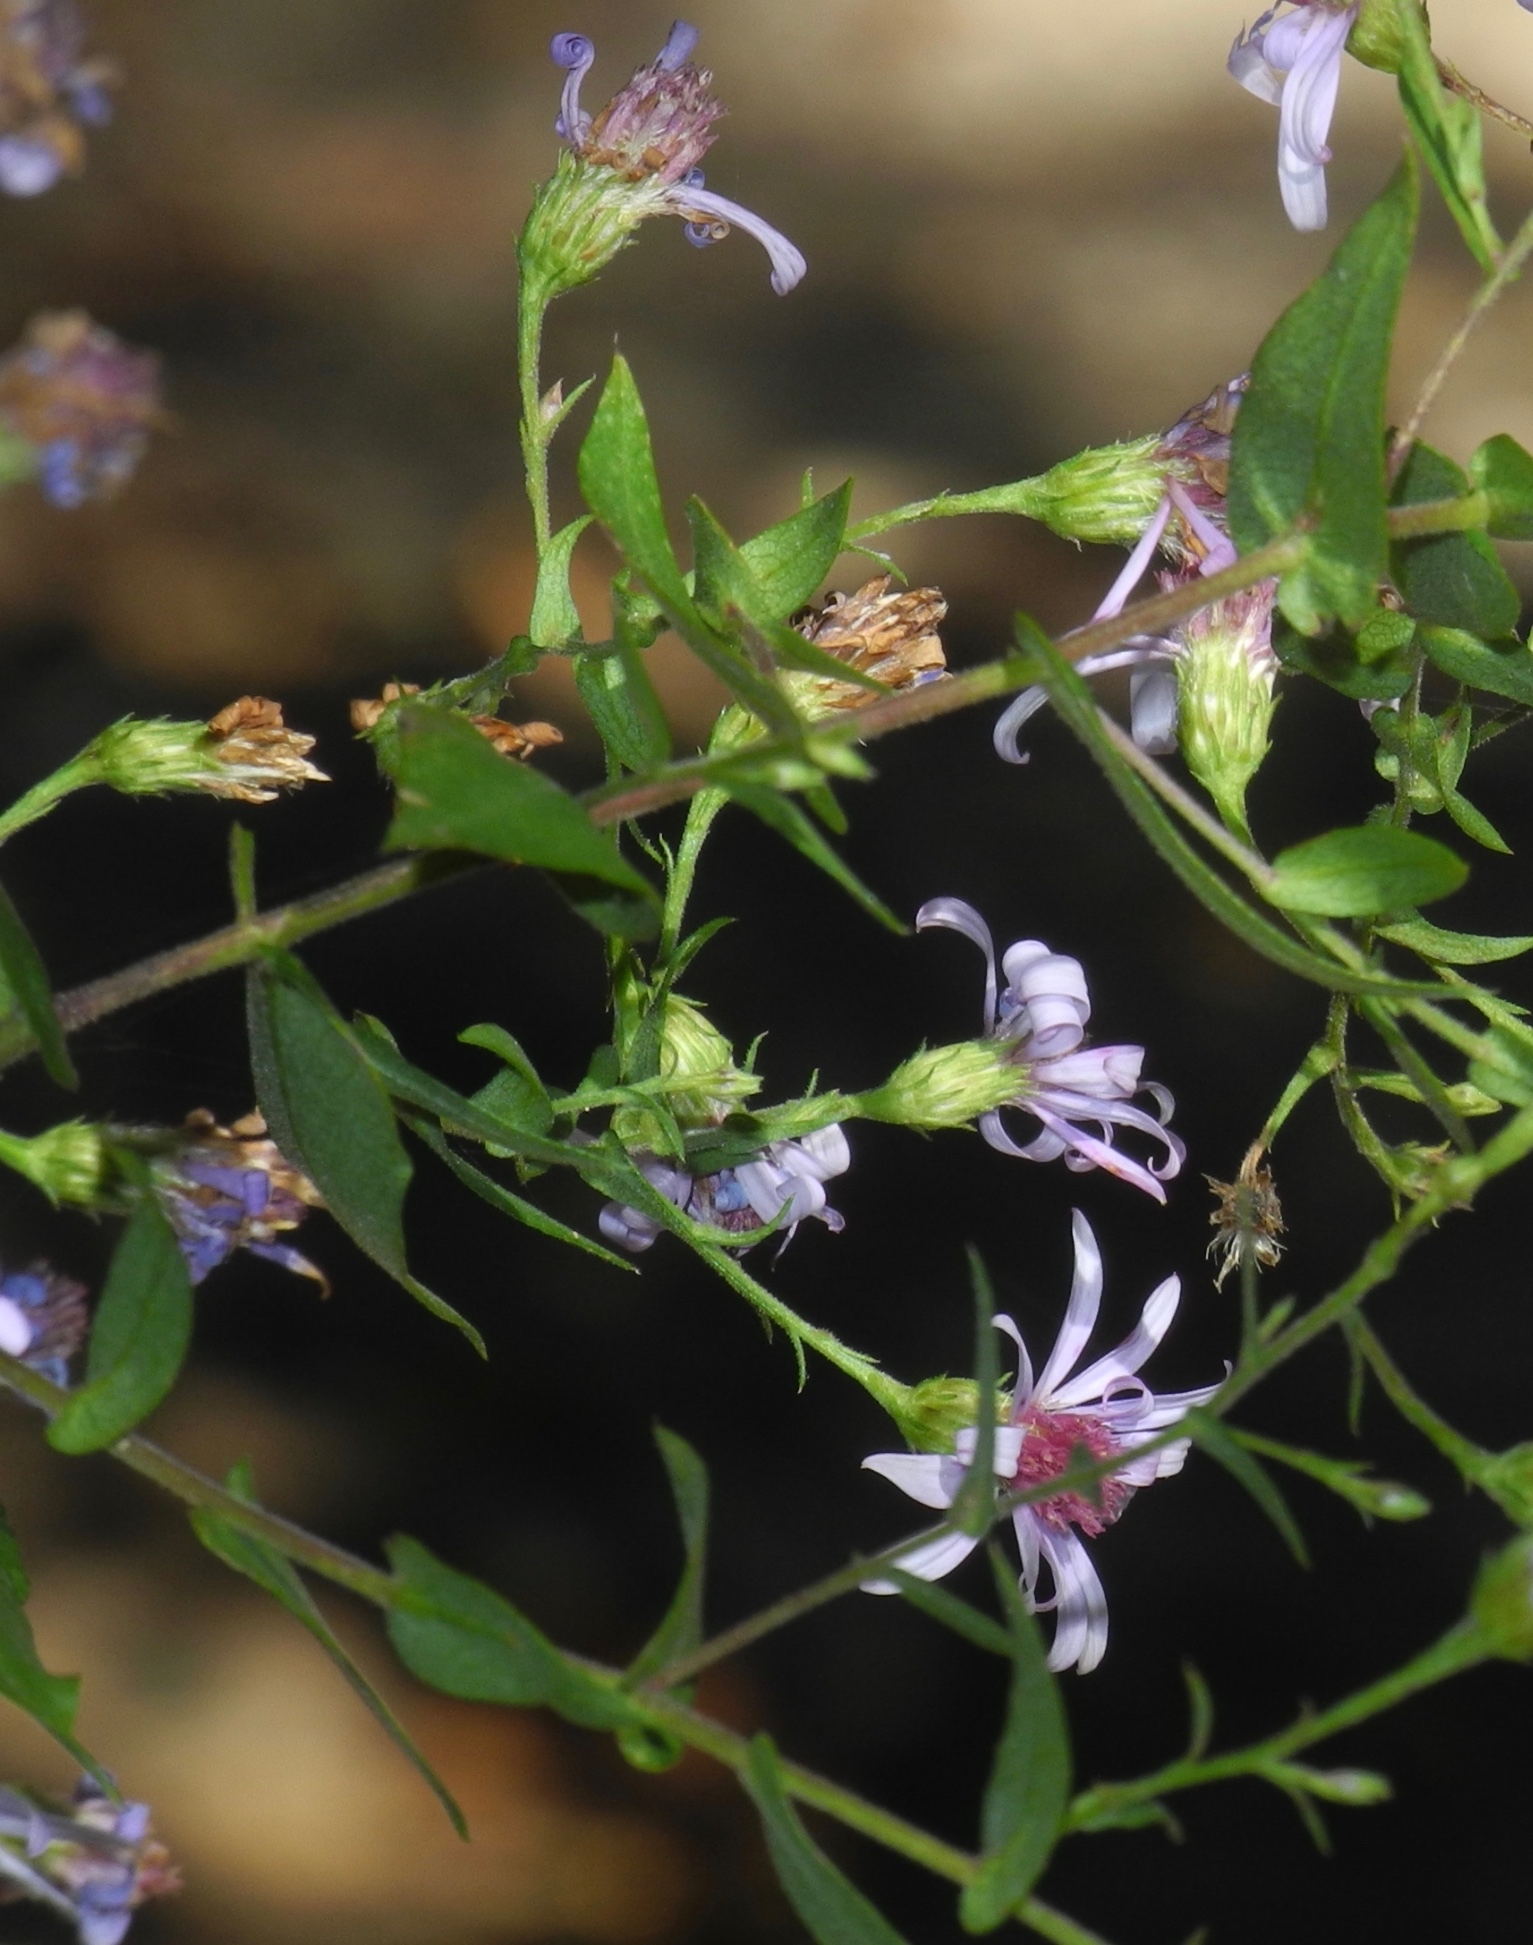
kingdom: Plantae
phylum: Tracheophyta
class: Magnoliopsida
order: Asterales
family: Asteraceae
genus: Symphyotrichum
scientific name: Symphyotrichum undulatum
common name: Clasping heart-leaf aster
